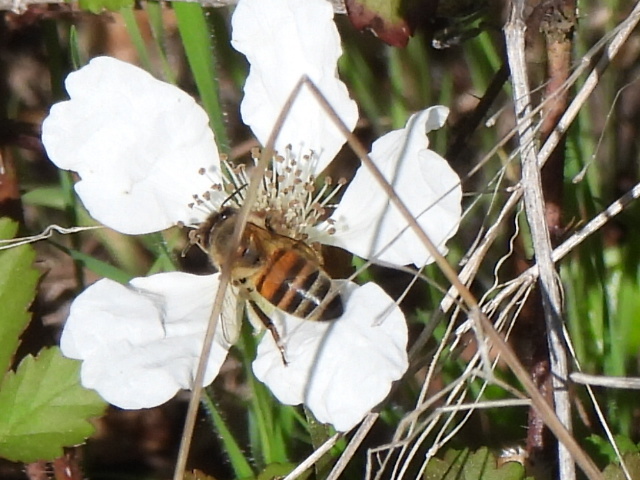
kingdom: Animalia
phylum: Arthropoda
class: Insecta
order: Hymenoptera
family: Apidae
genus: Apis
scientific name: Apis mellifera
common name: Honey bee
